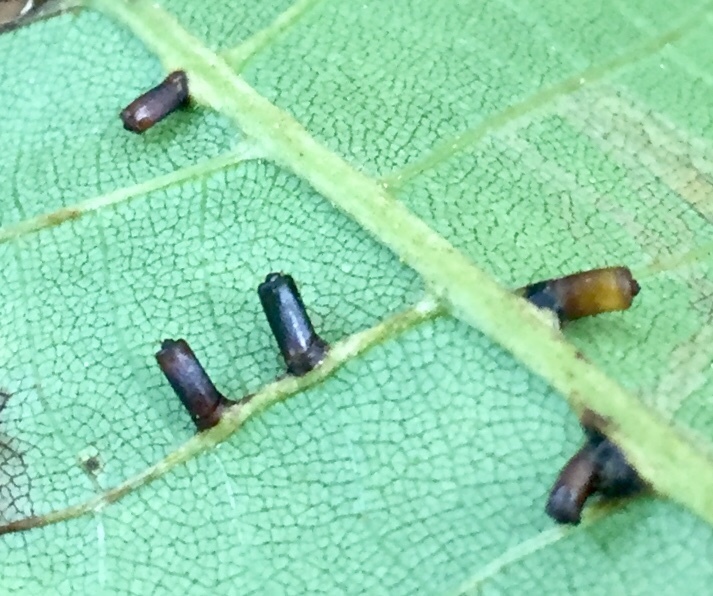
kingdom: Animalia
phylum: Arthropoda
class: Insecta
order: Diptera
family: Cecidomyiidae
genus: Caryomyia
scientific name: Caryomyia tubicola
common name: Hickory bullet gall midge
